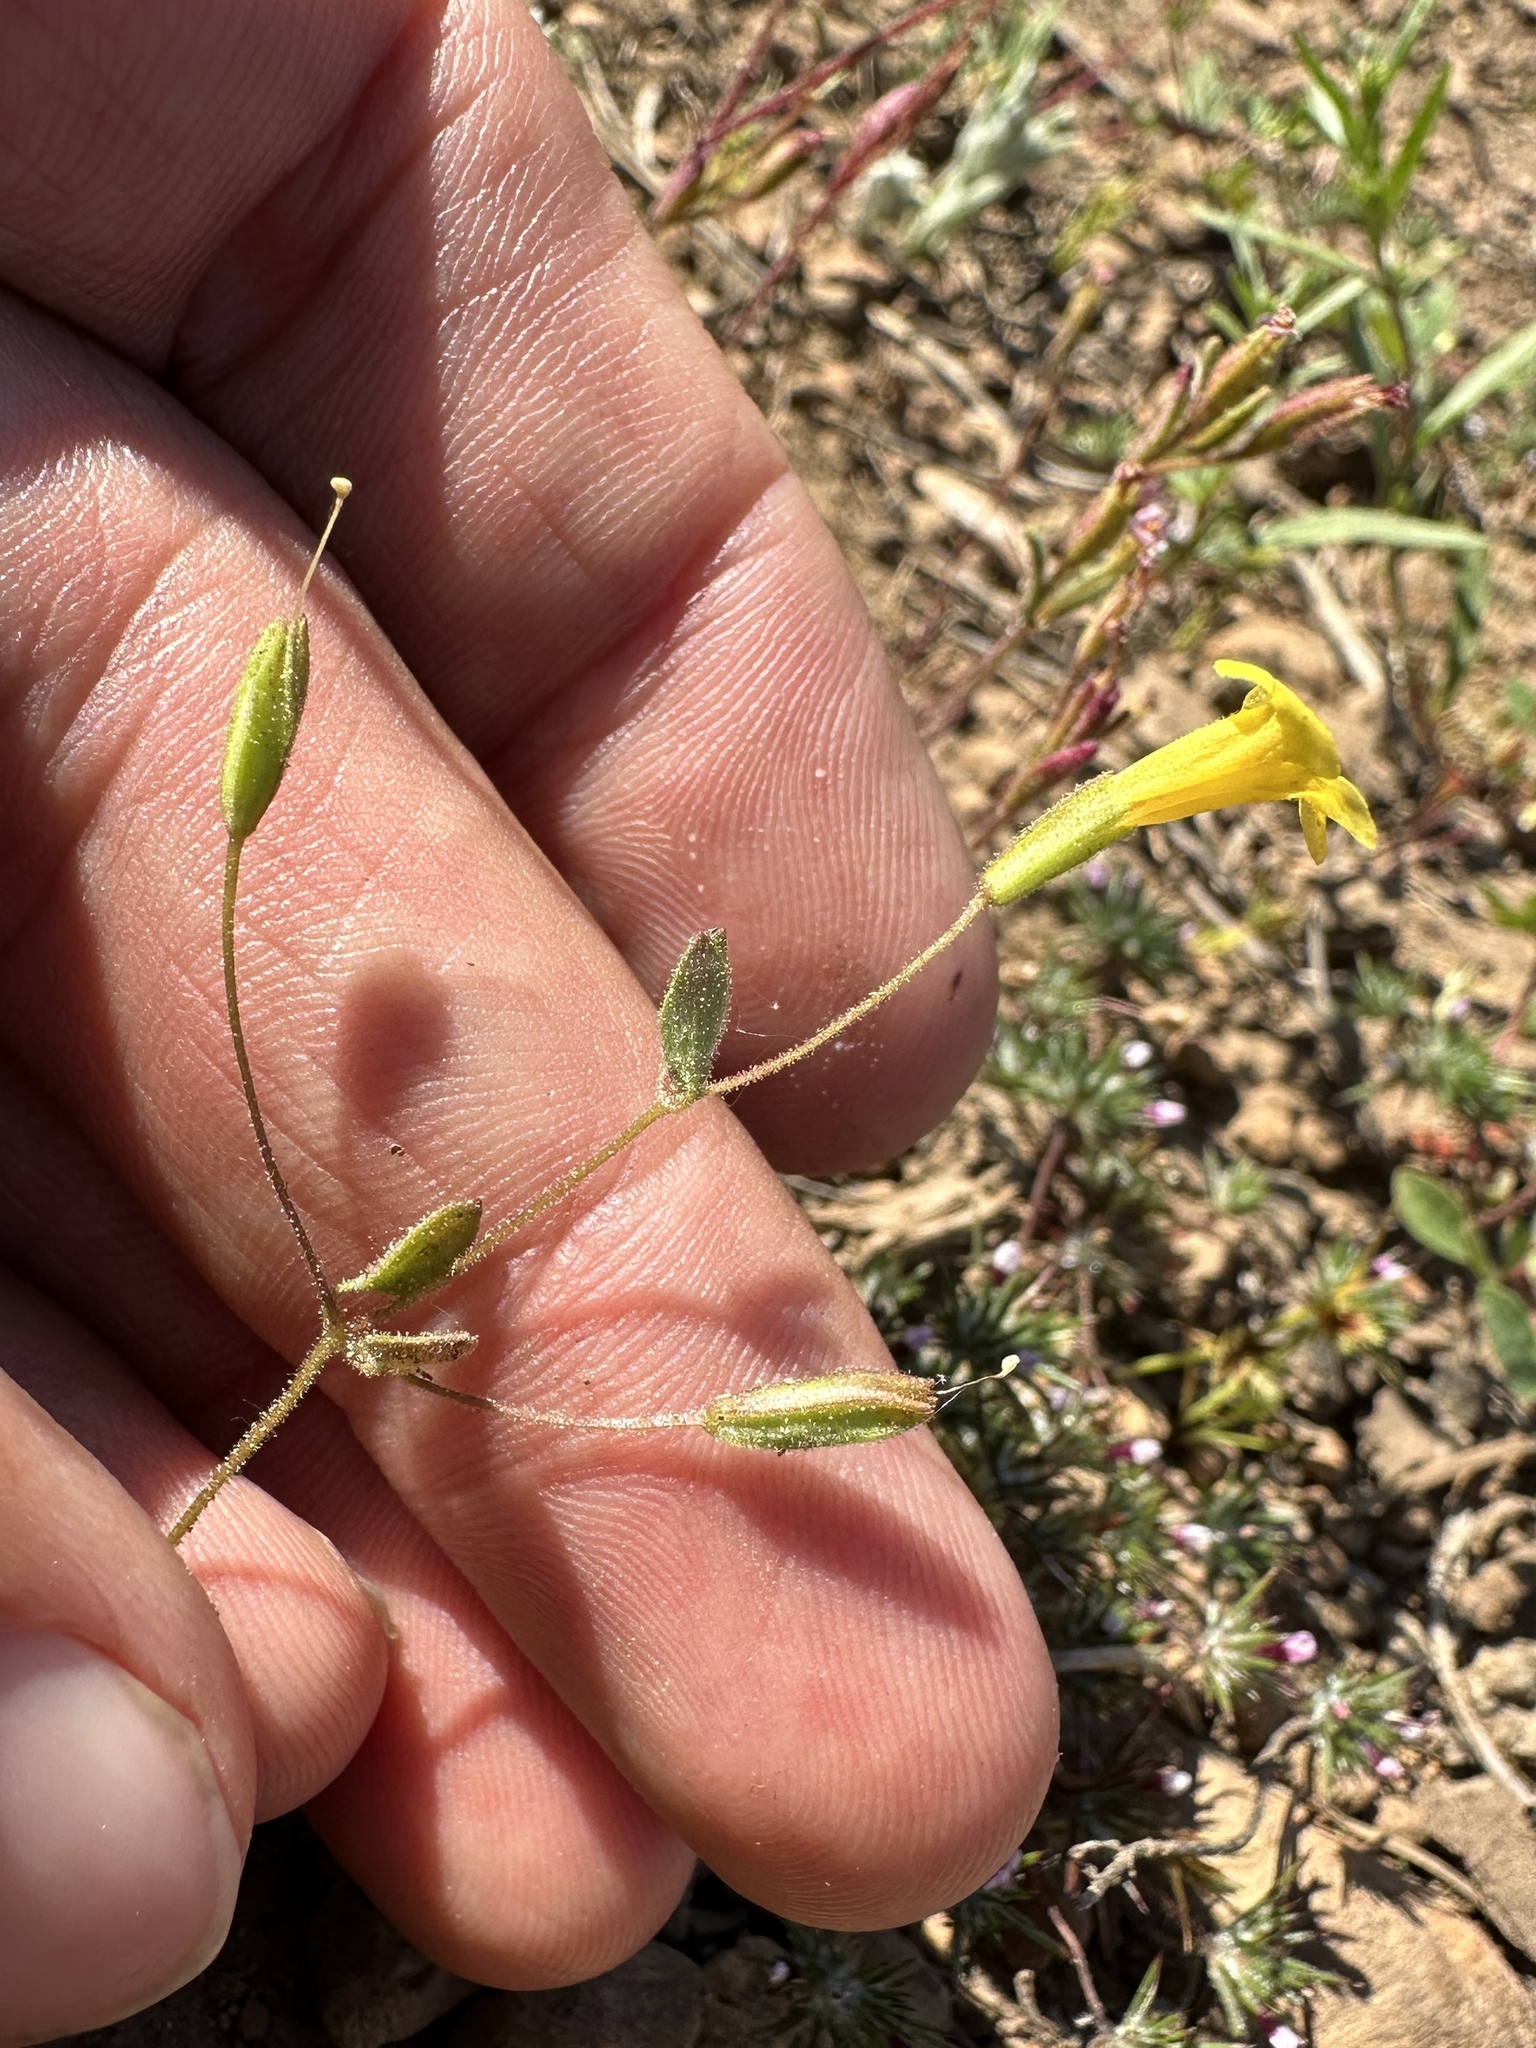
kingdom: Plantae
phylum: Tracheophyta
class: Magnoliopsida
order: Lamiales
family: Phrymaceae
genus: Erythranthe
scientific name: Erythranthe pulsiferae
